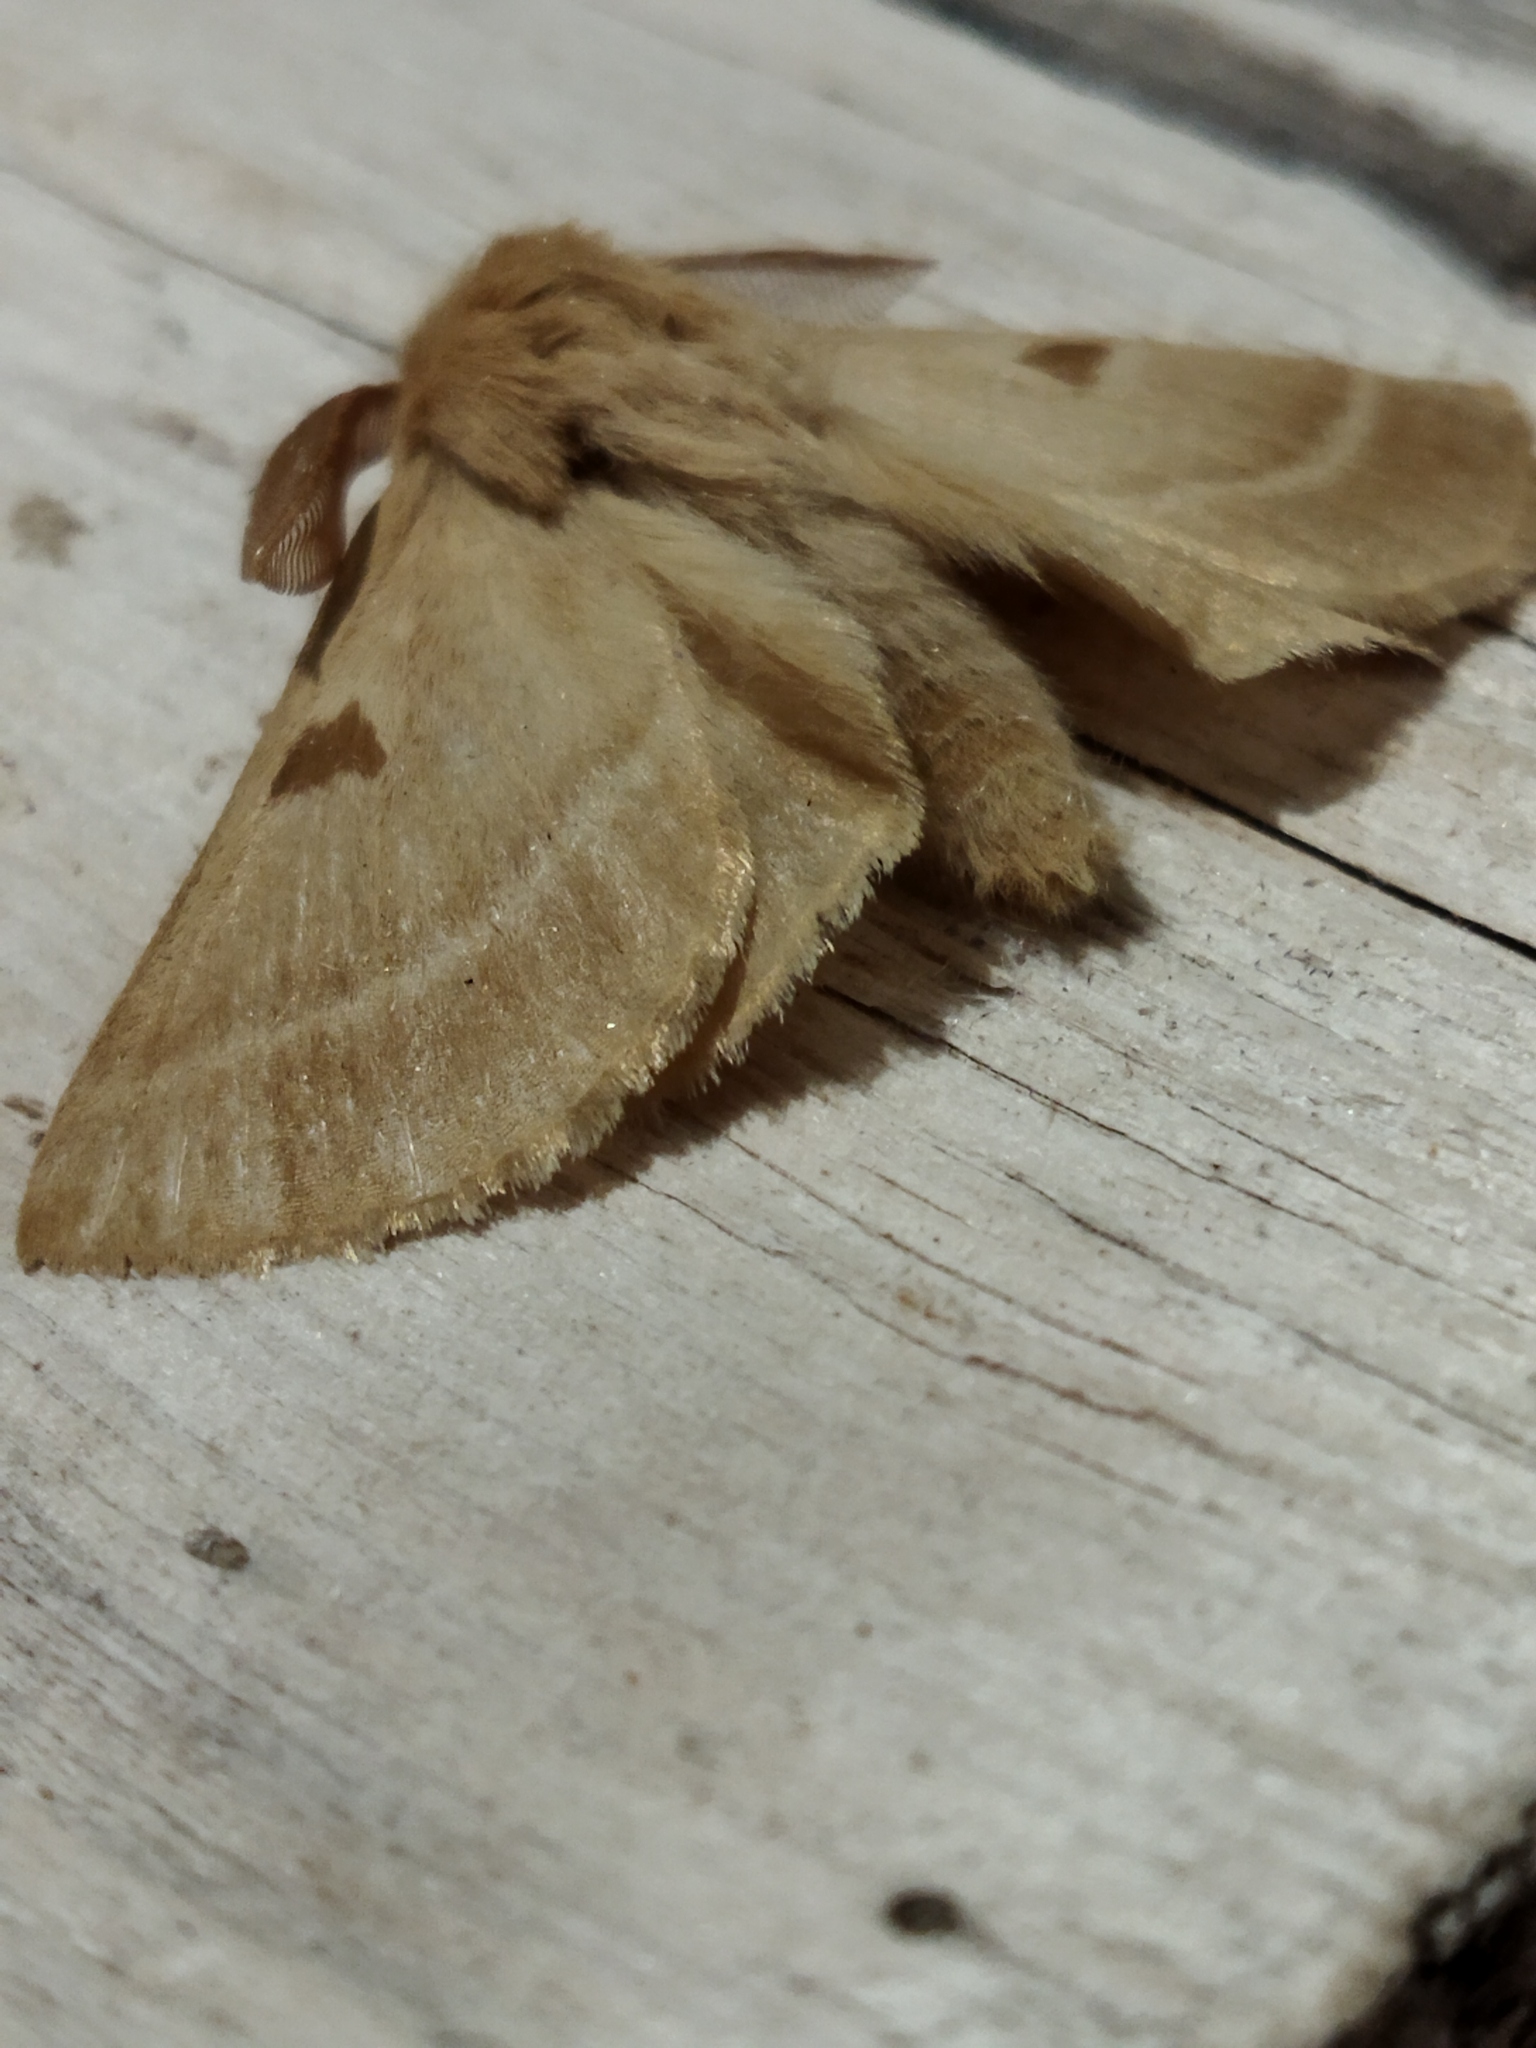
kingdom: Animalia
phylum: Arthropoda
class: Insecta
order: Lepidoptera
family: Brahmaeidae
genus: Lemonia
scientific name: Lemonia balcanica
